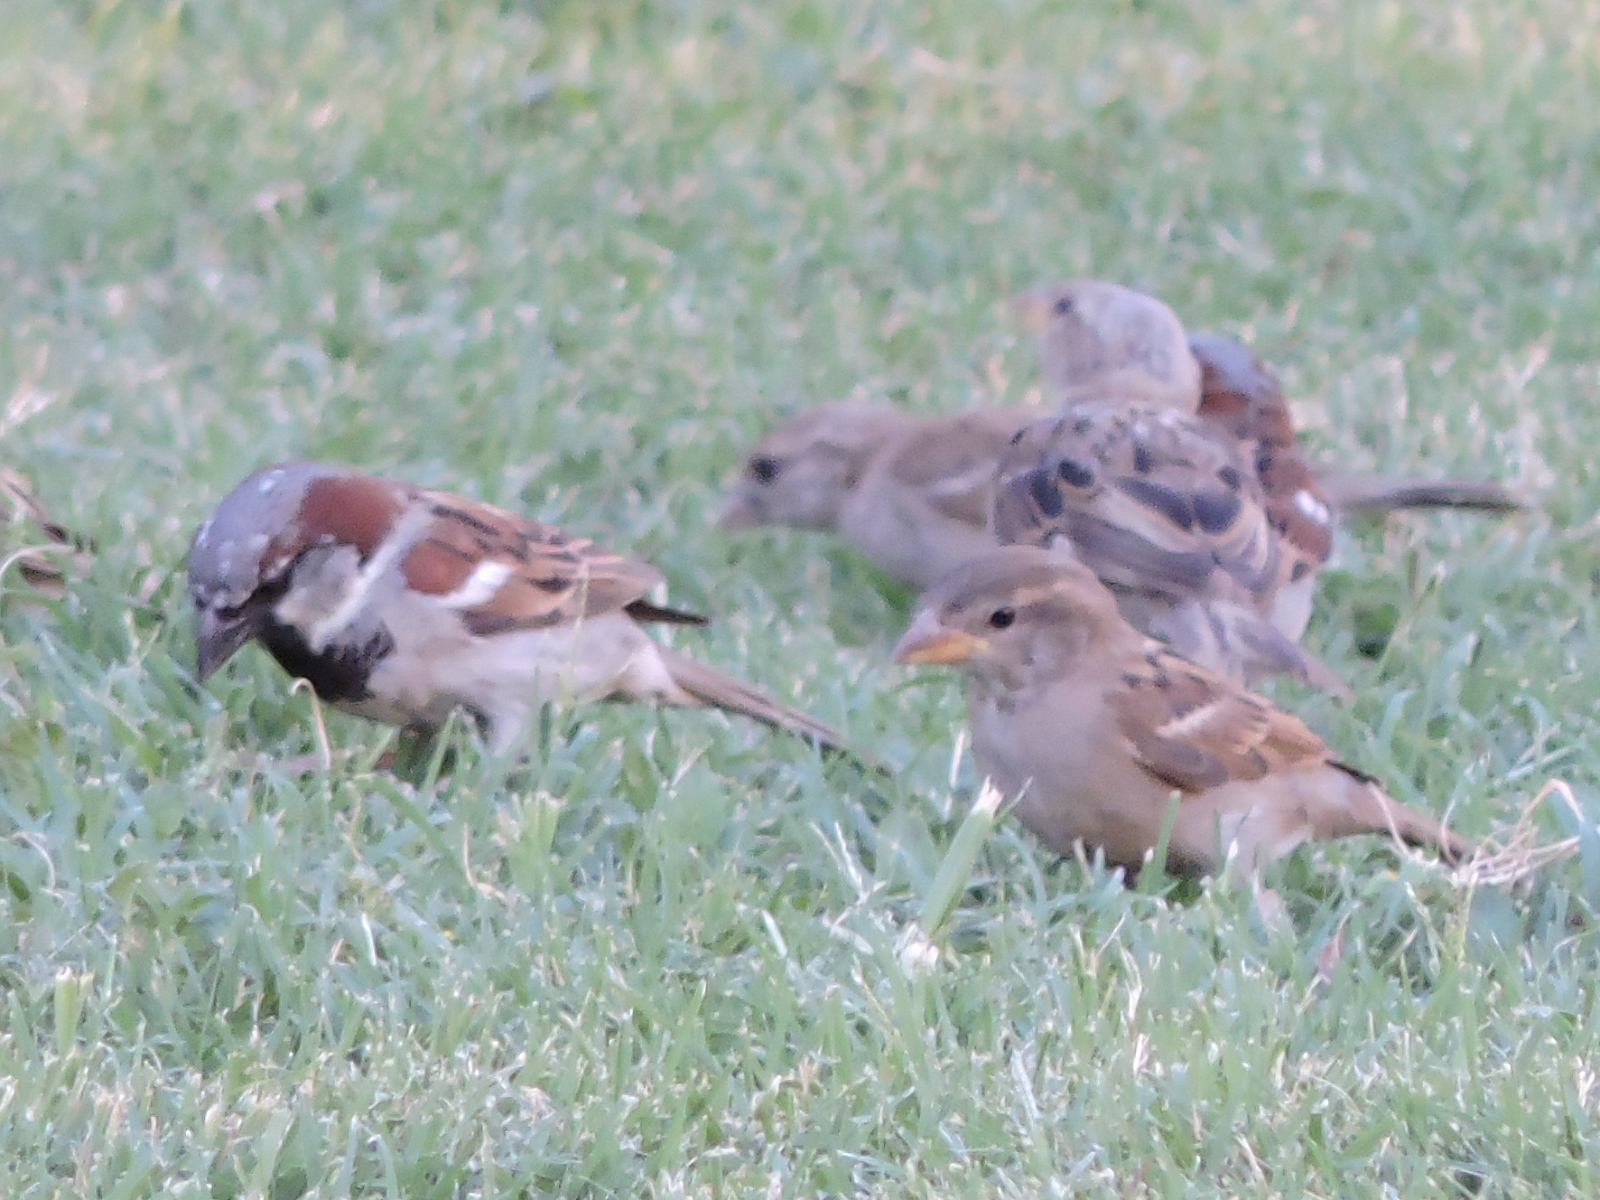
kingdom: Animalia
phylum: Chordata
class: Aves
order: Passeriformes
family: Passeridae
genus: Passer
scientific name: Passer domesticus
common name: House sparrow
